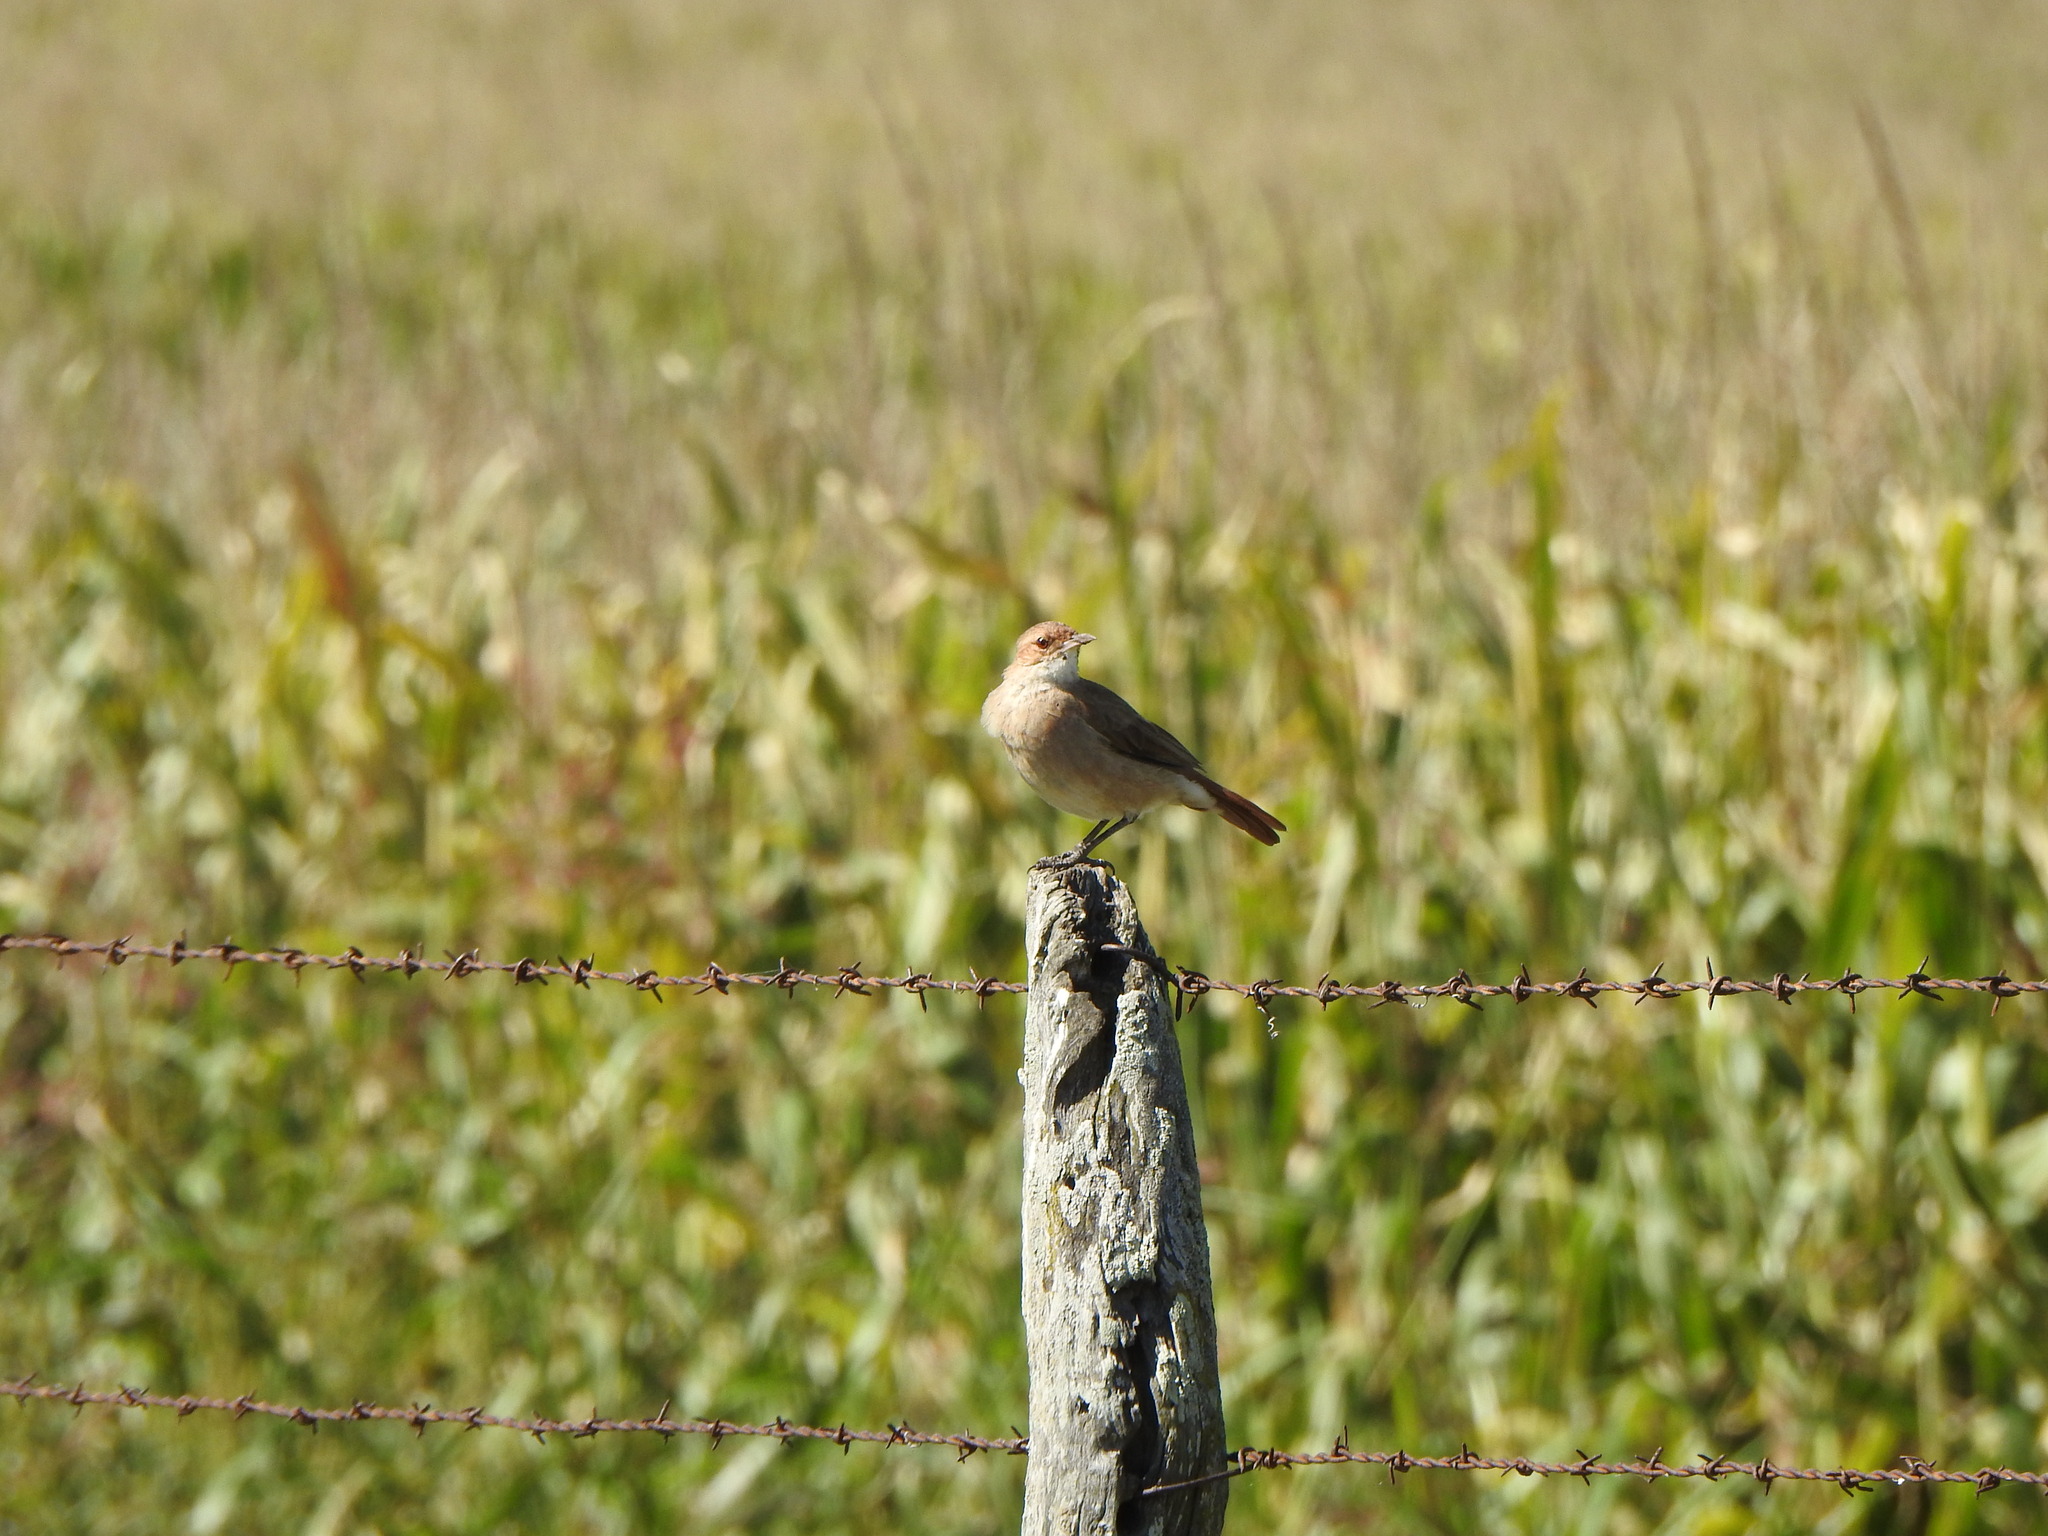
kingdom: Animalia
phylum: Chordata
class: Aves
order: Passeriformes
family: Furnariidae
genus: Furnarius
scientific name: Furnarius rufus
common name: Rufous hornero
